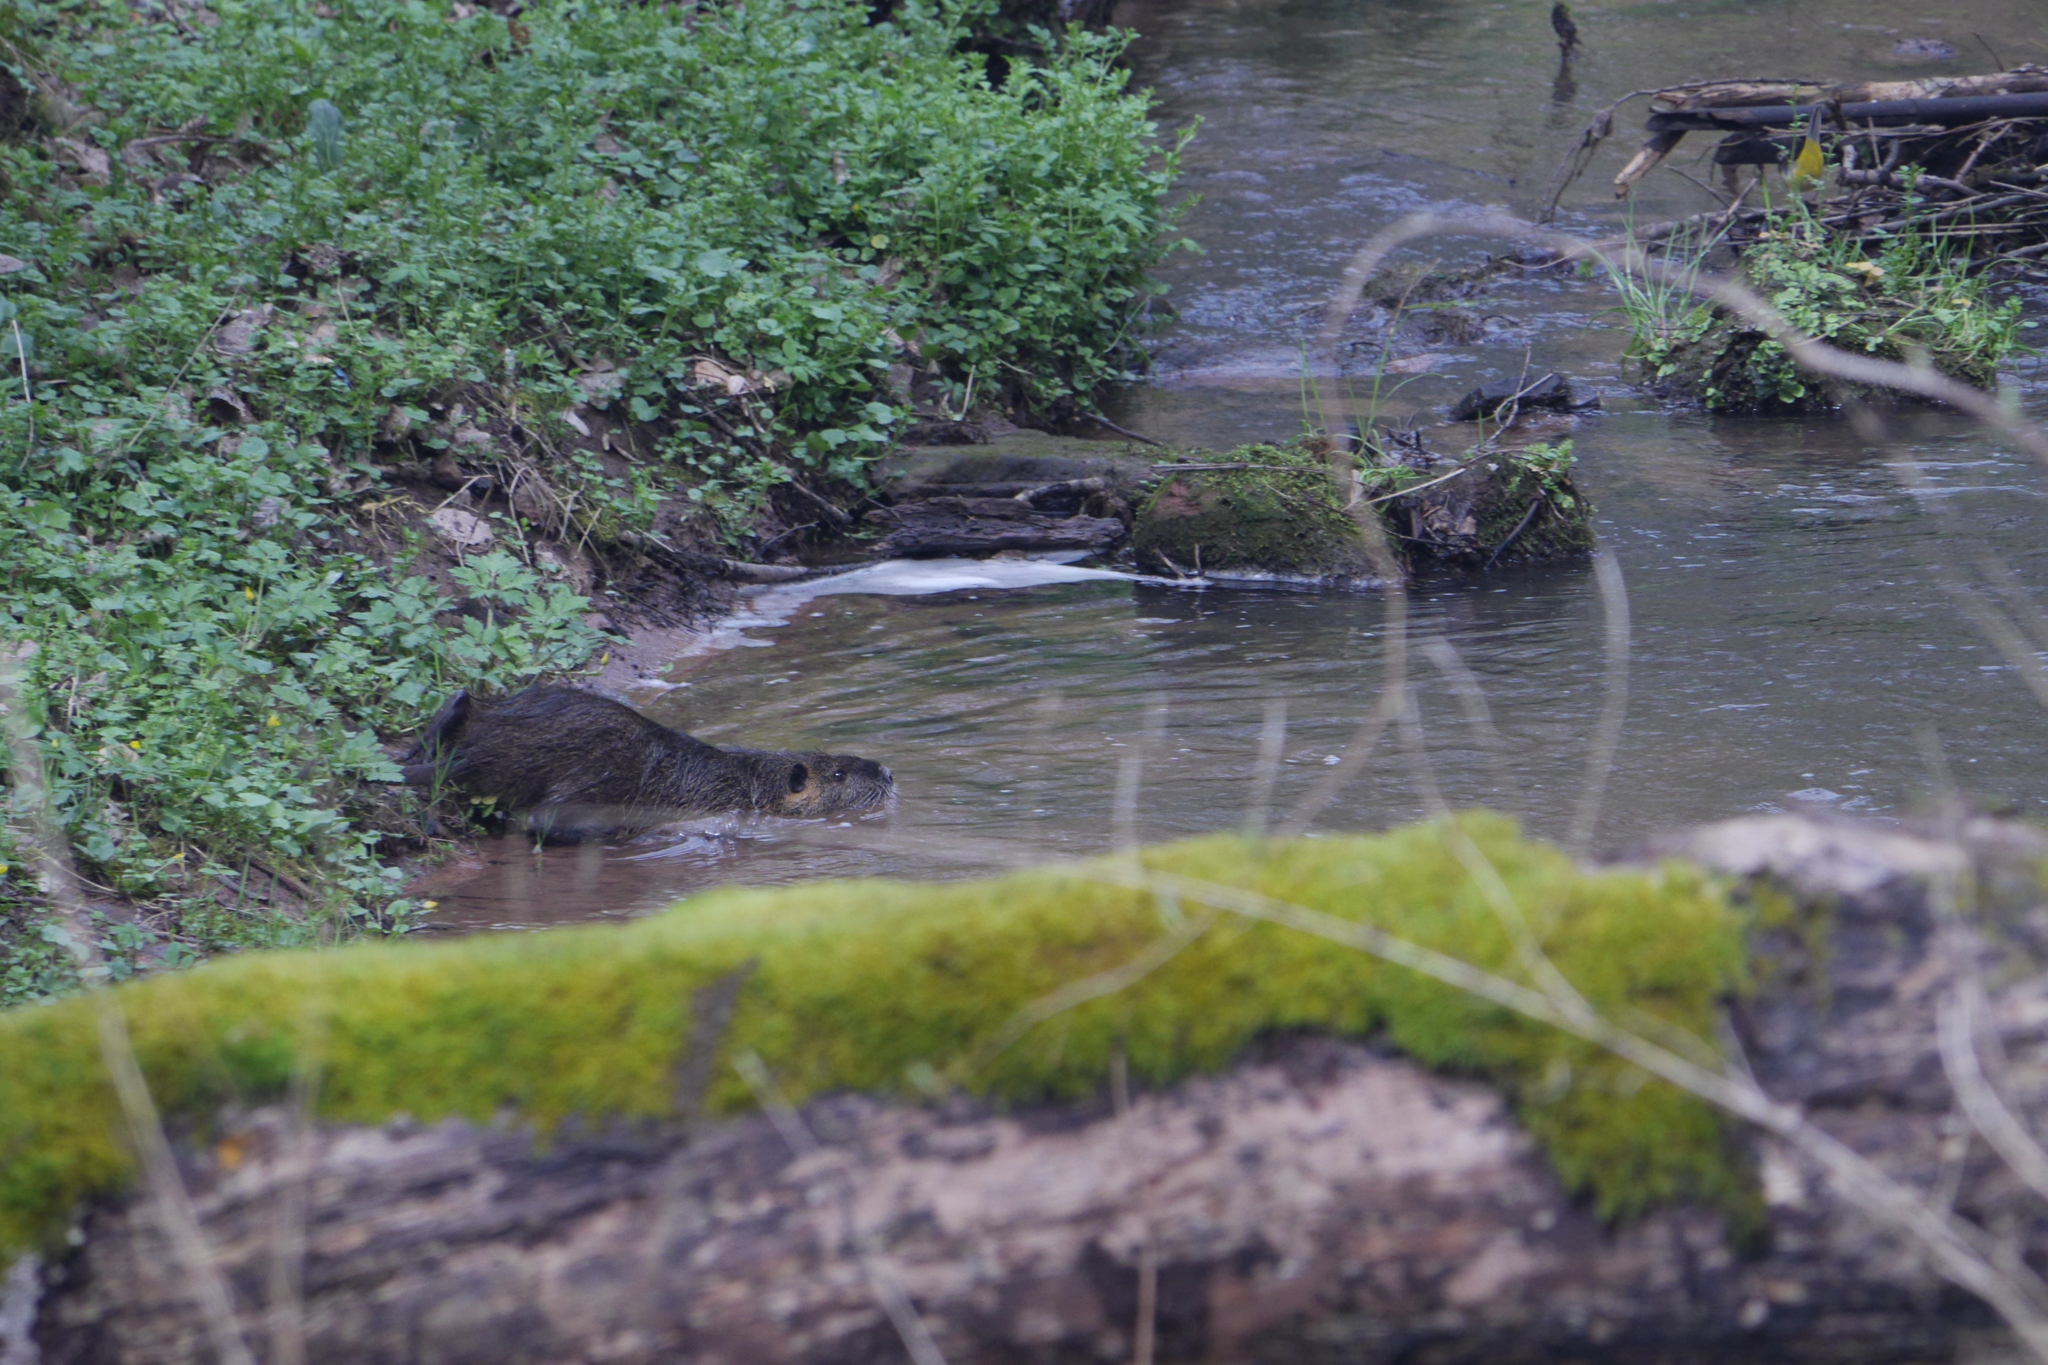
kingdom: Animalia
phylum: Chordata
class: Mammalia
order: Rodentia
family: Myocastoridae
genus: Myocastor
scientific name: Myocastor coypus
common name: Coypu
